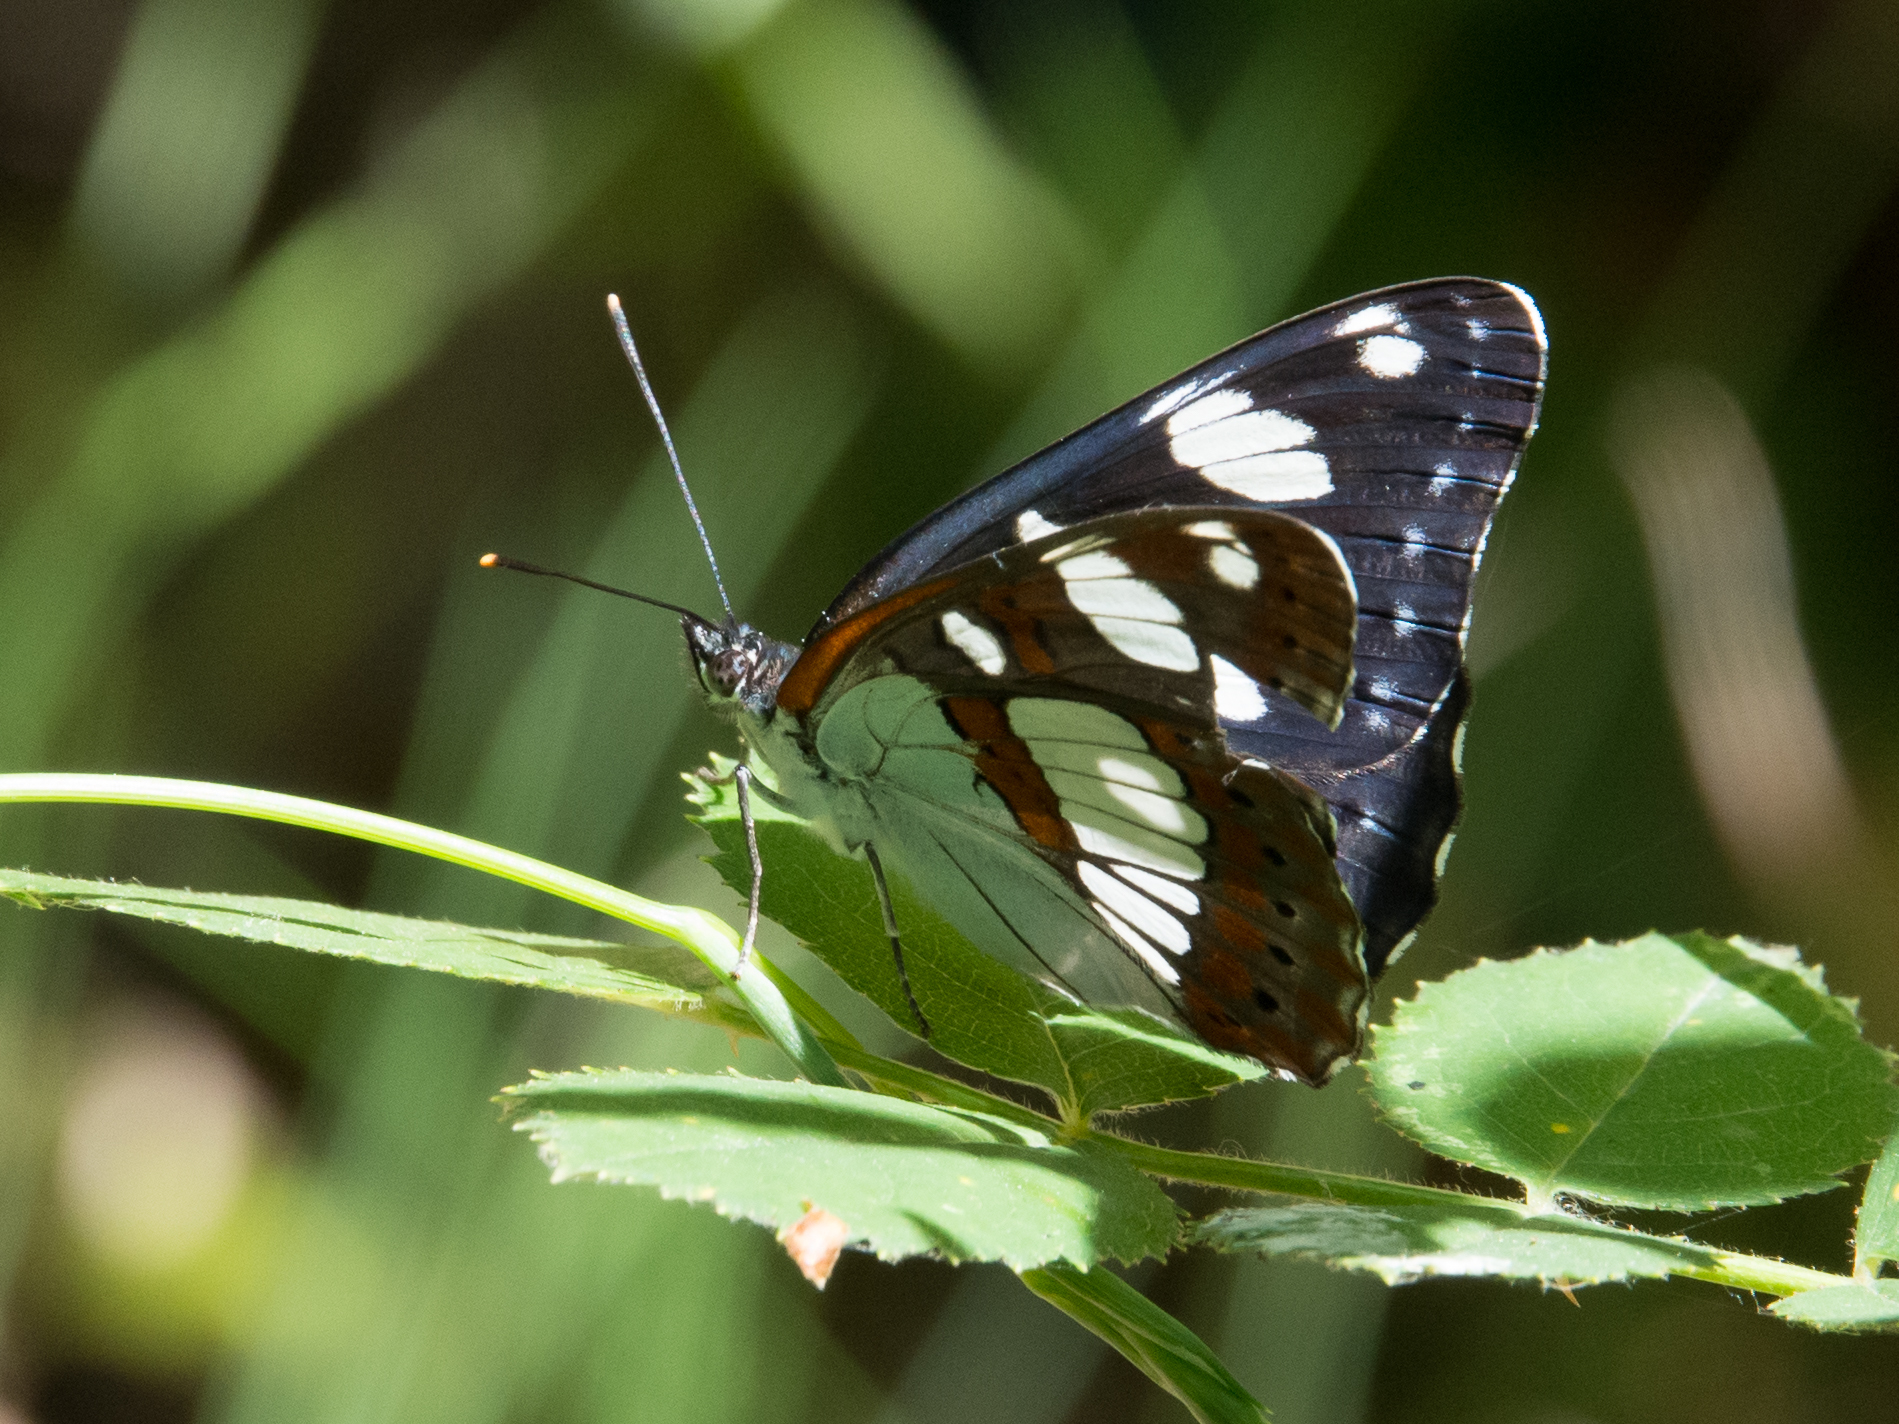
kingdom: Animalia
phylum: Arthropoda
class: Insecta
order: Lepidoptera
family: Nymphalidae
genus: Limenitis
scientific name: Limenitis reducta
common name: Southern white admiral
